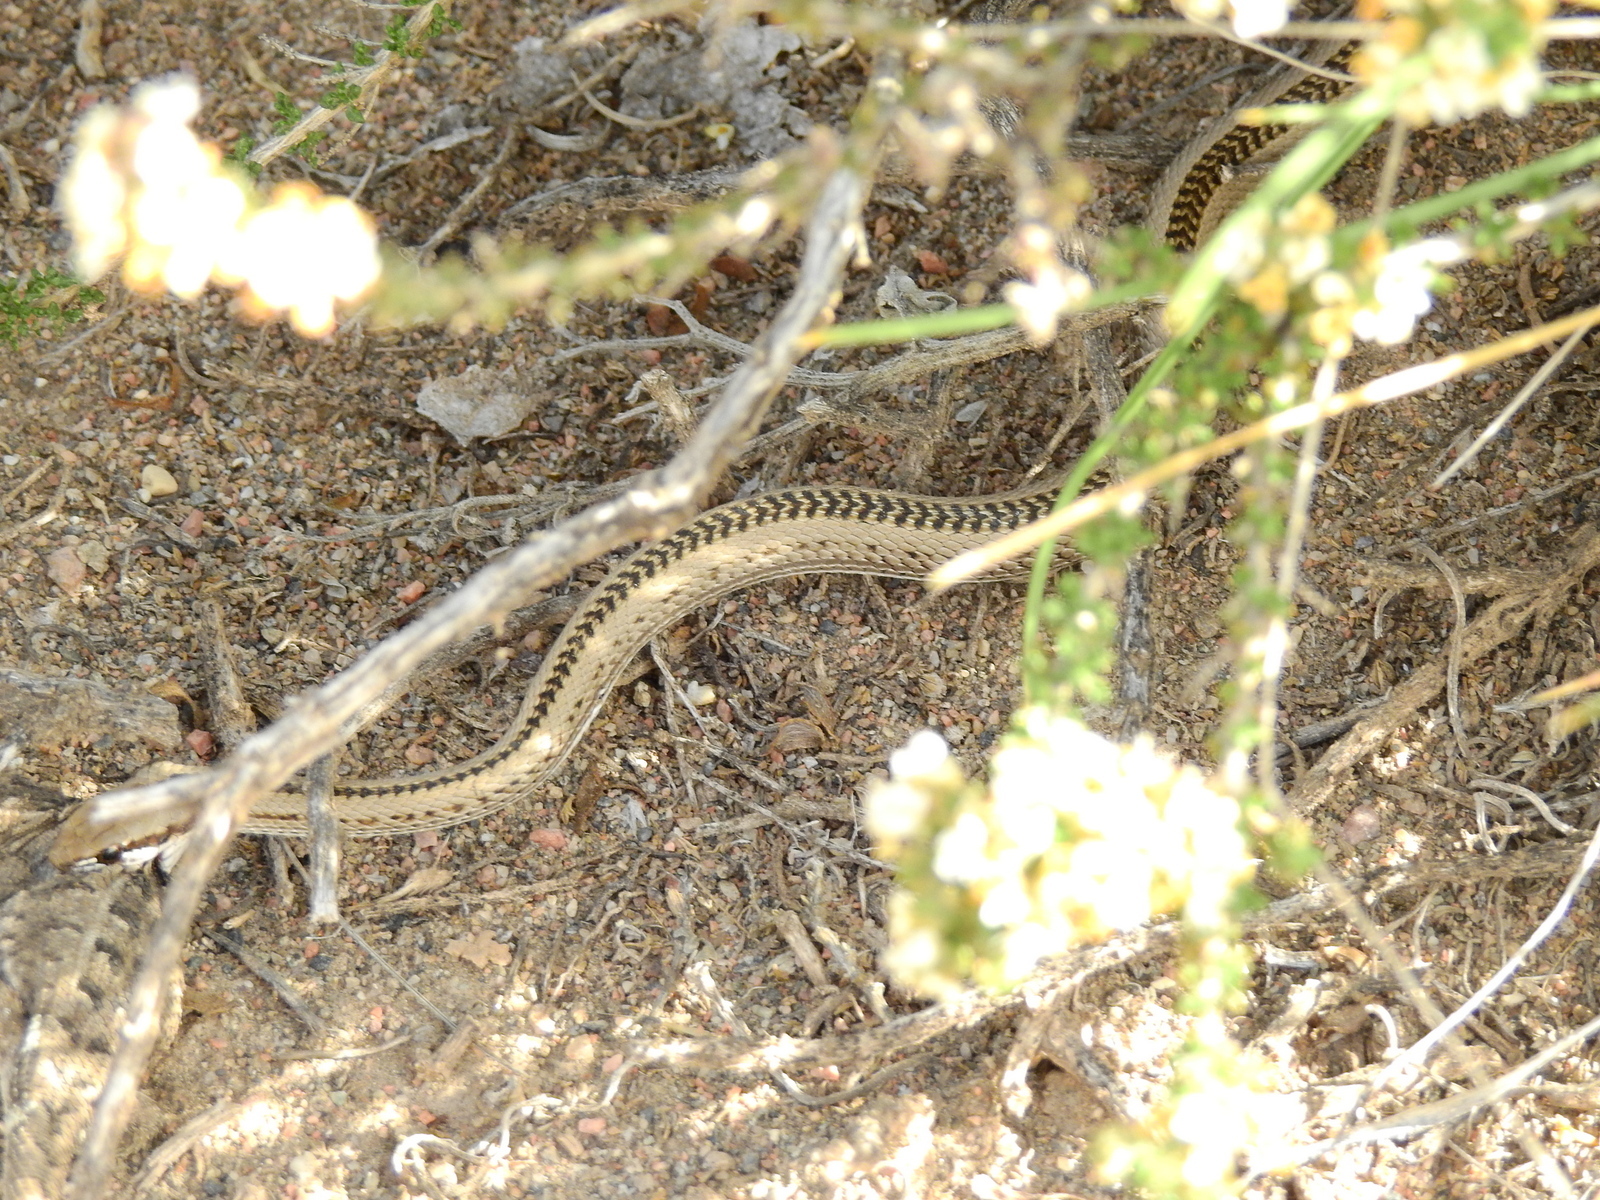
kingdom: Animalia
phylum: Chordata
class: Squamata
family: Liolaemidae
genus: Liolaemus
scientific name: Liolaemus wiegmannii
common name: Wiegmann's tree iguana
